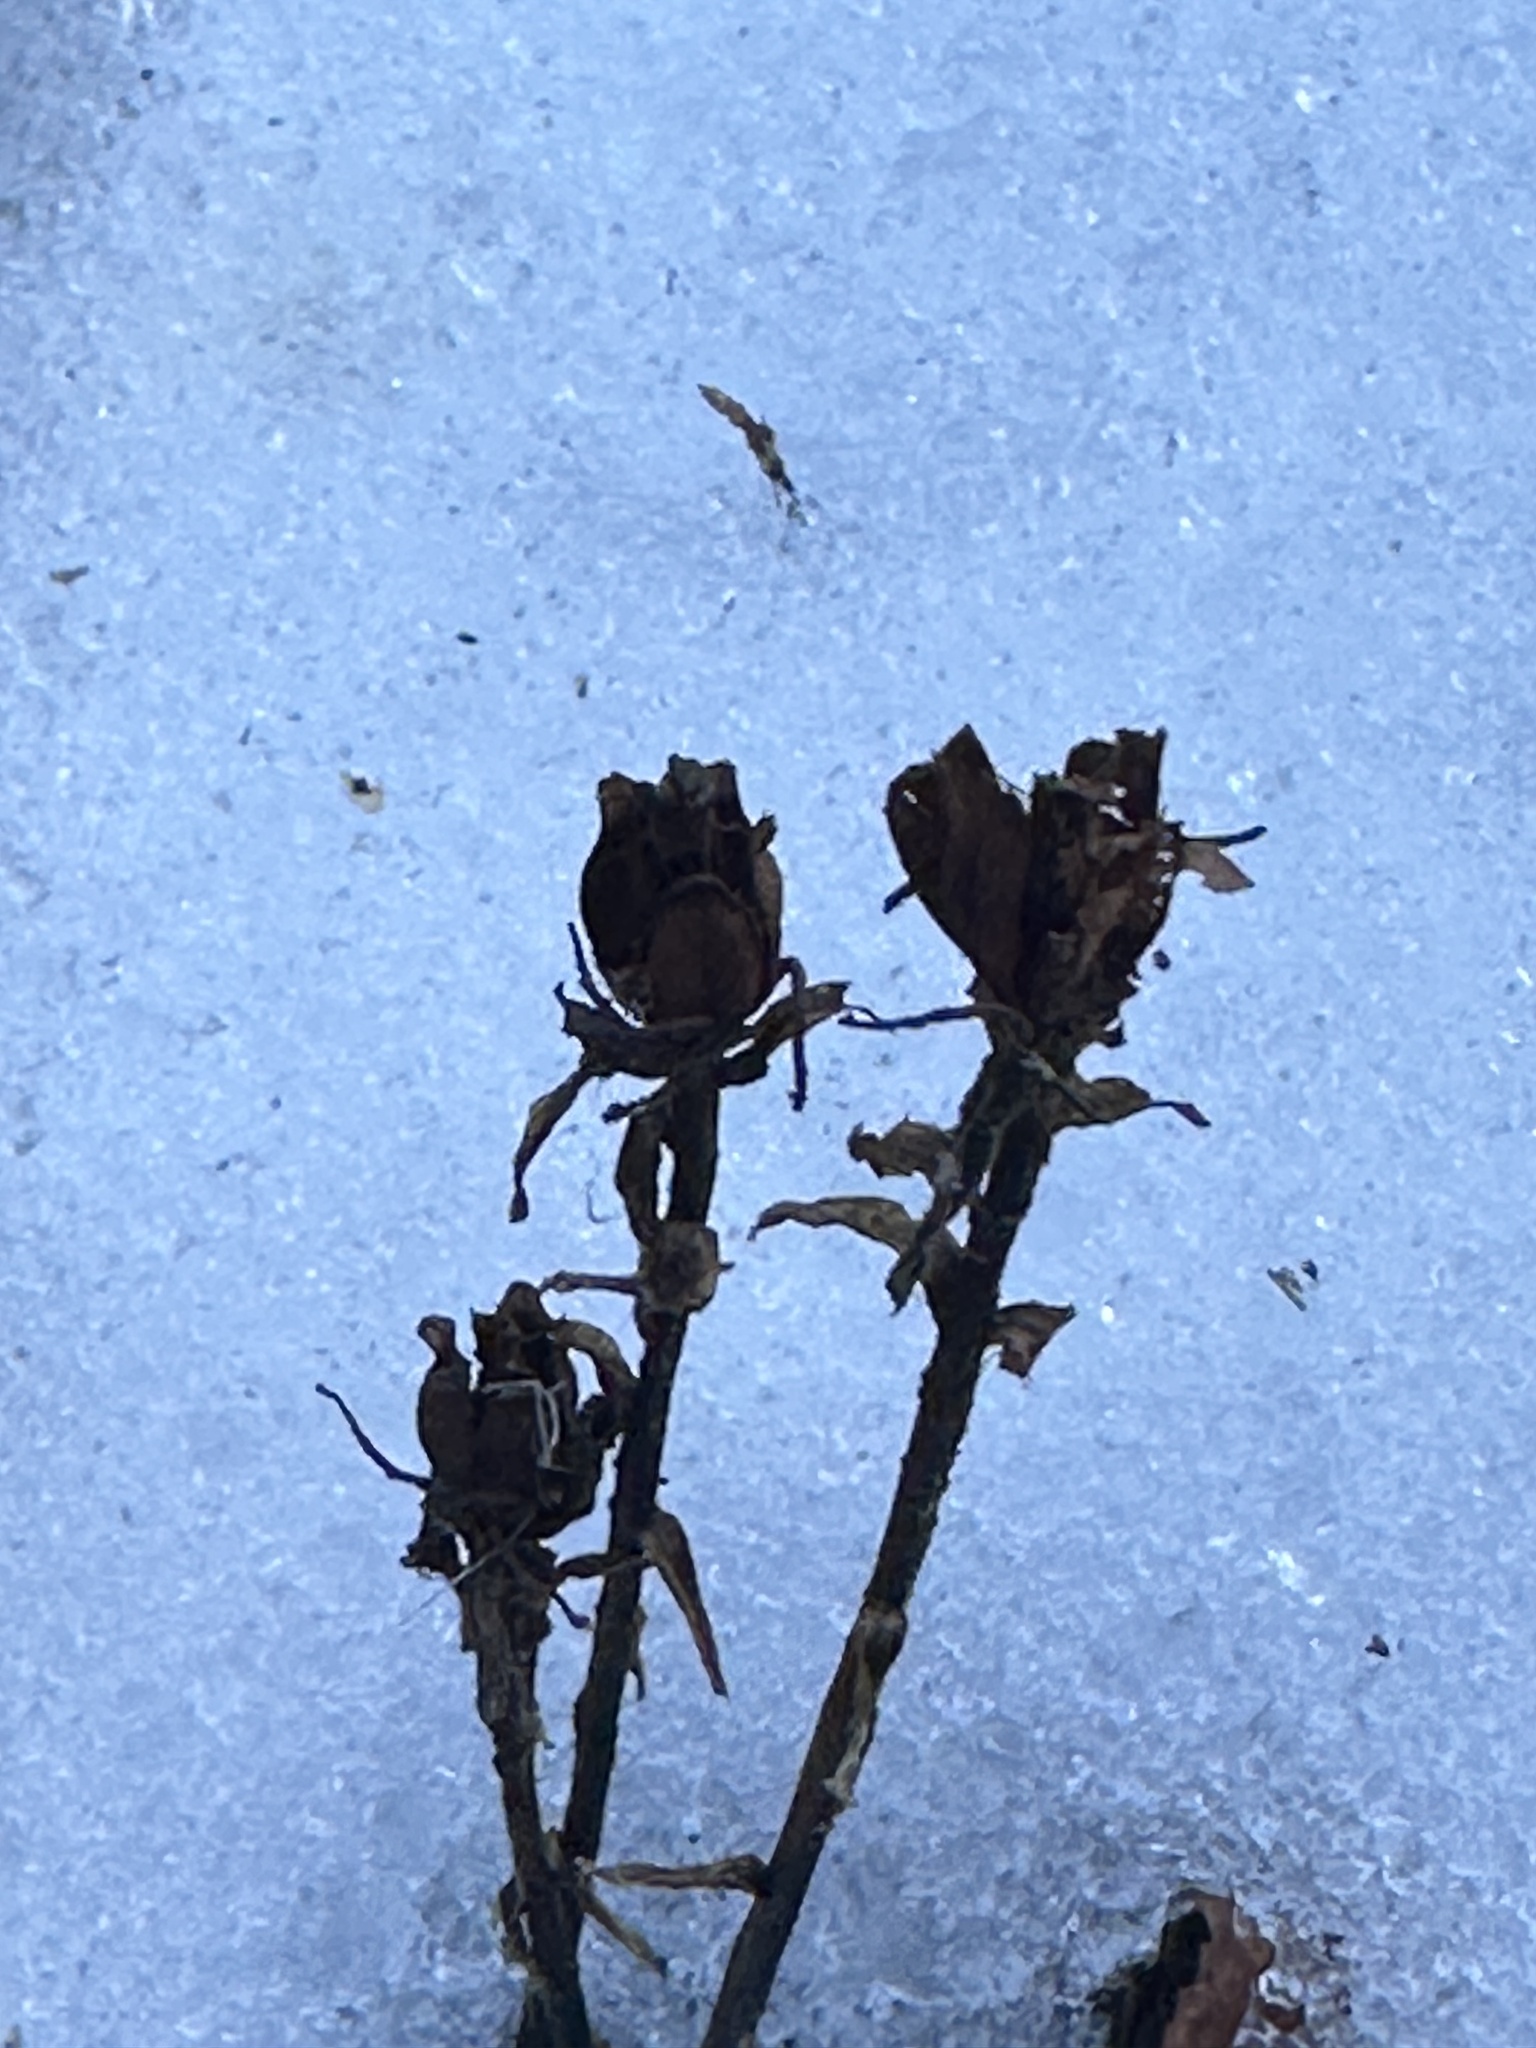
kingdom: Plantae
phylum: Tracheophyta
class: Magnoliopsida
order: Ericales
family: Ericaceae
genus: Monotropa
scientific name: Monotropa uniflora
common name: Convulsion root
